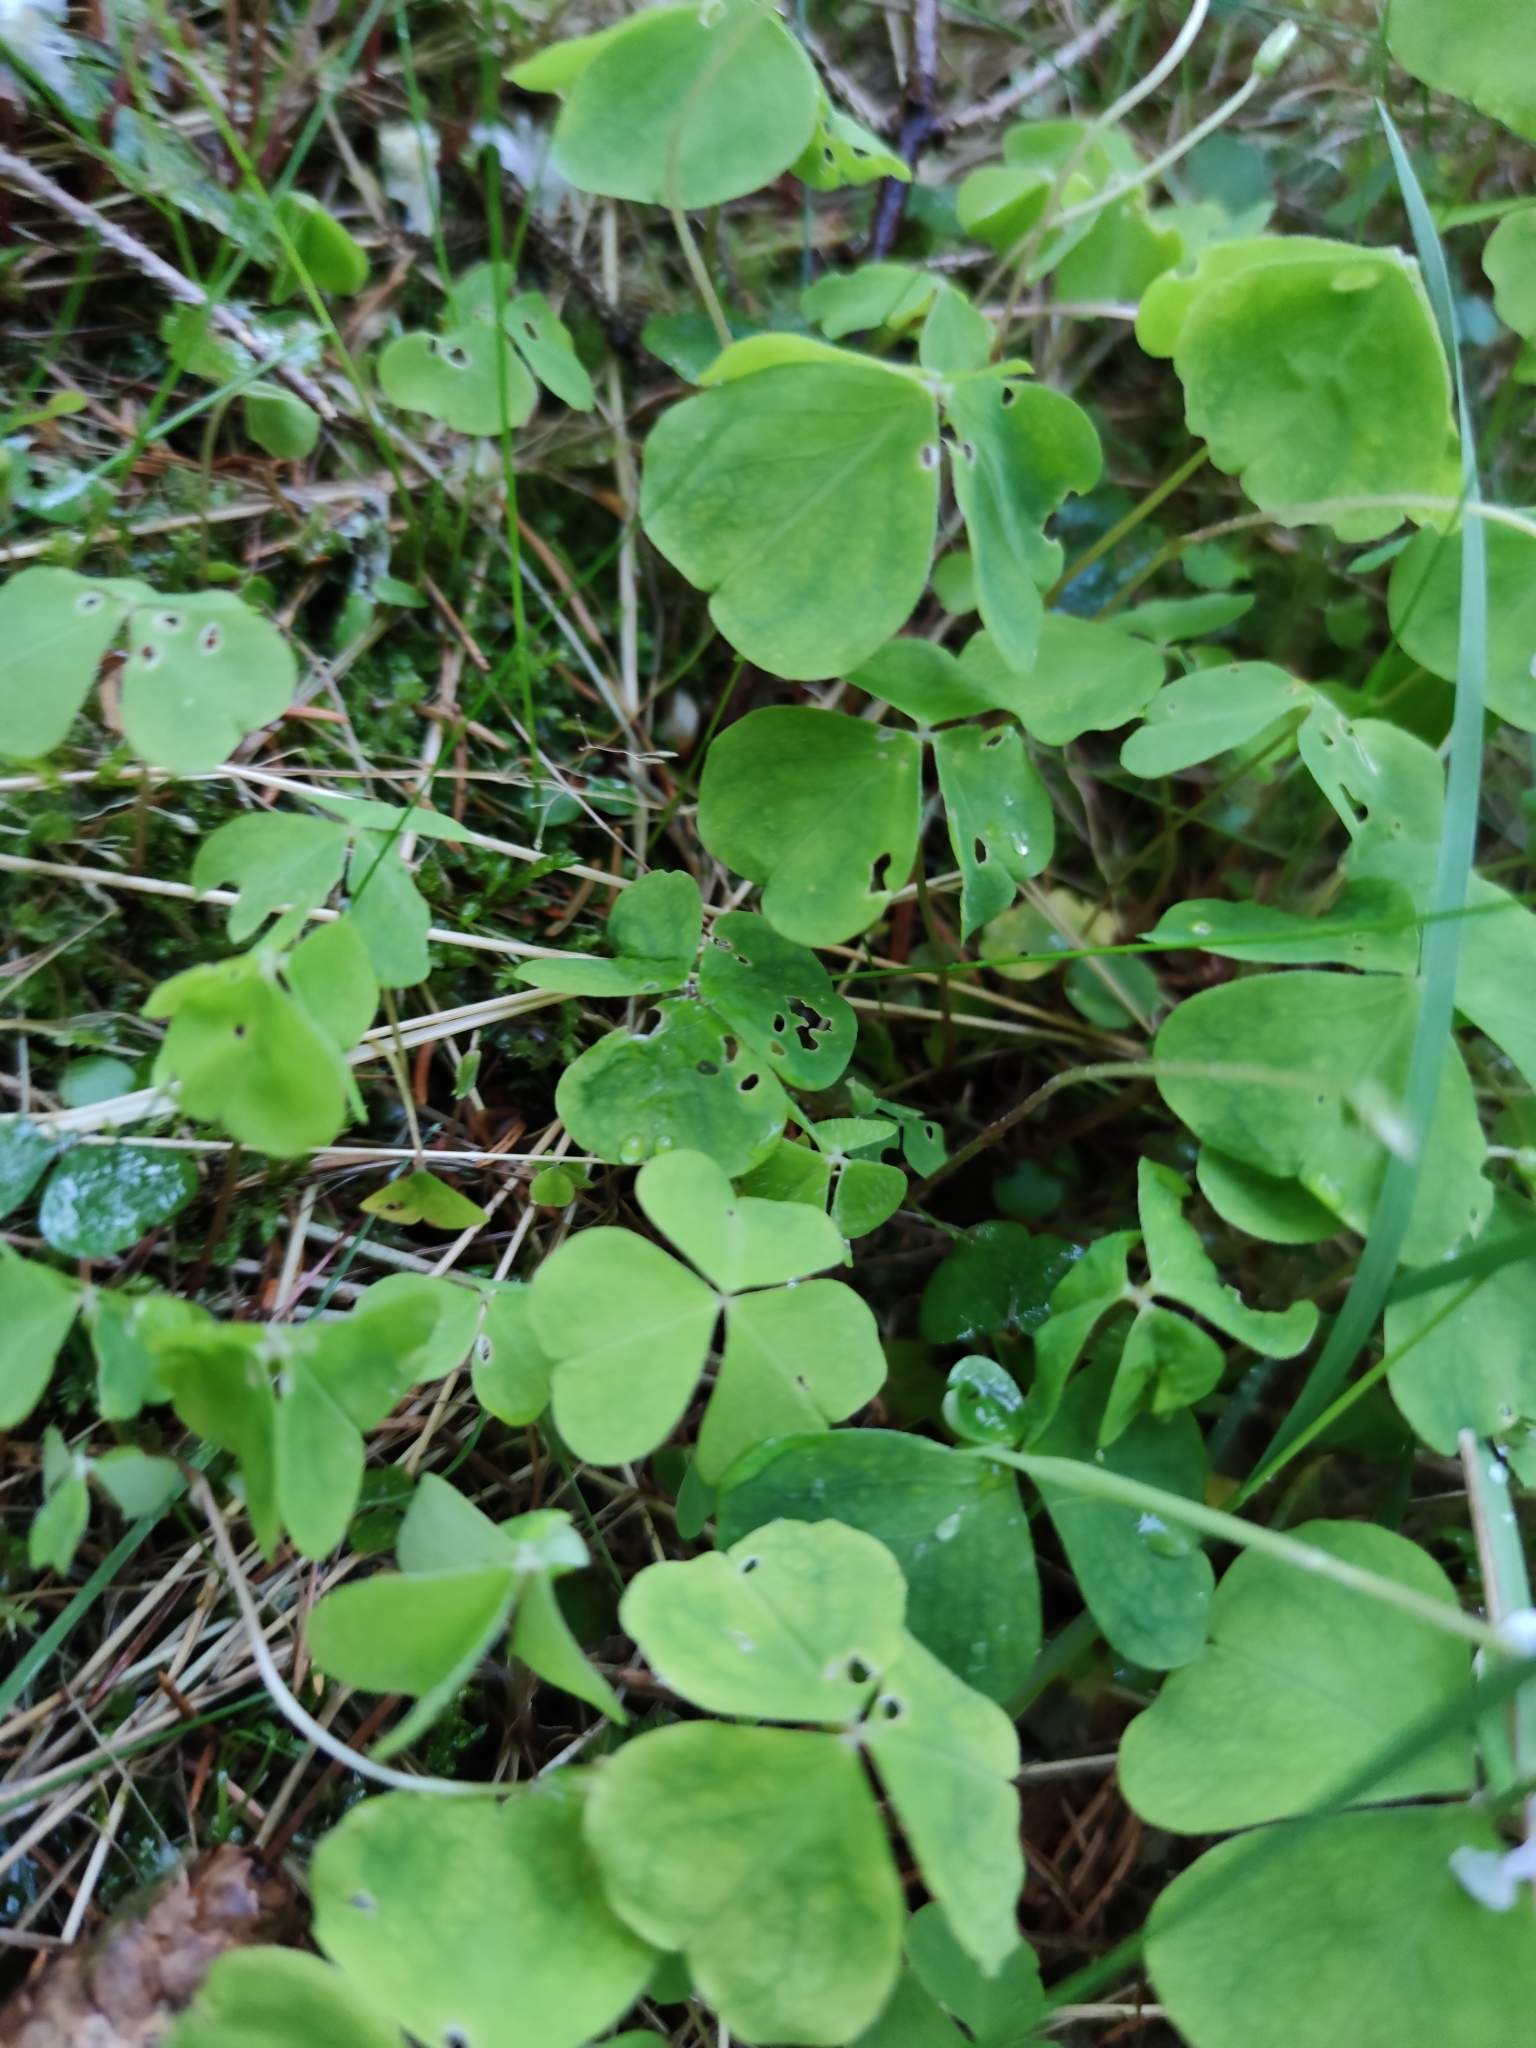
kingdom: Plantae
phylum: Tracheophyta
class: Magnoliopsida
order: Oxalidales
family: Oxalidaceae
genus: Oxalis
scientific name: Oxalis acetosella
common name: Wood-sorrel
